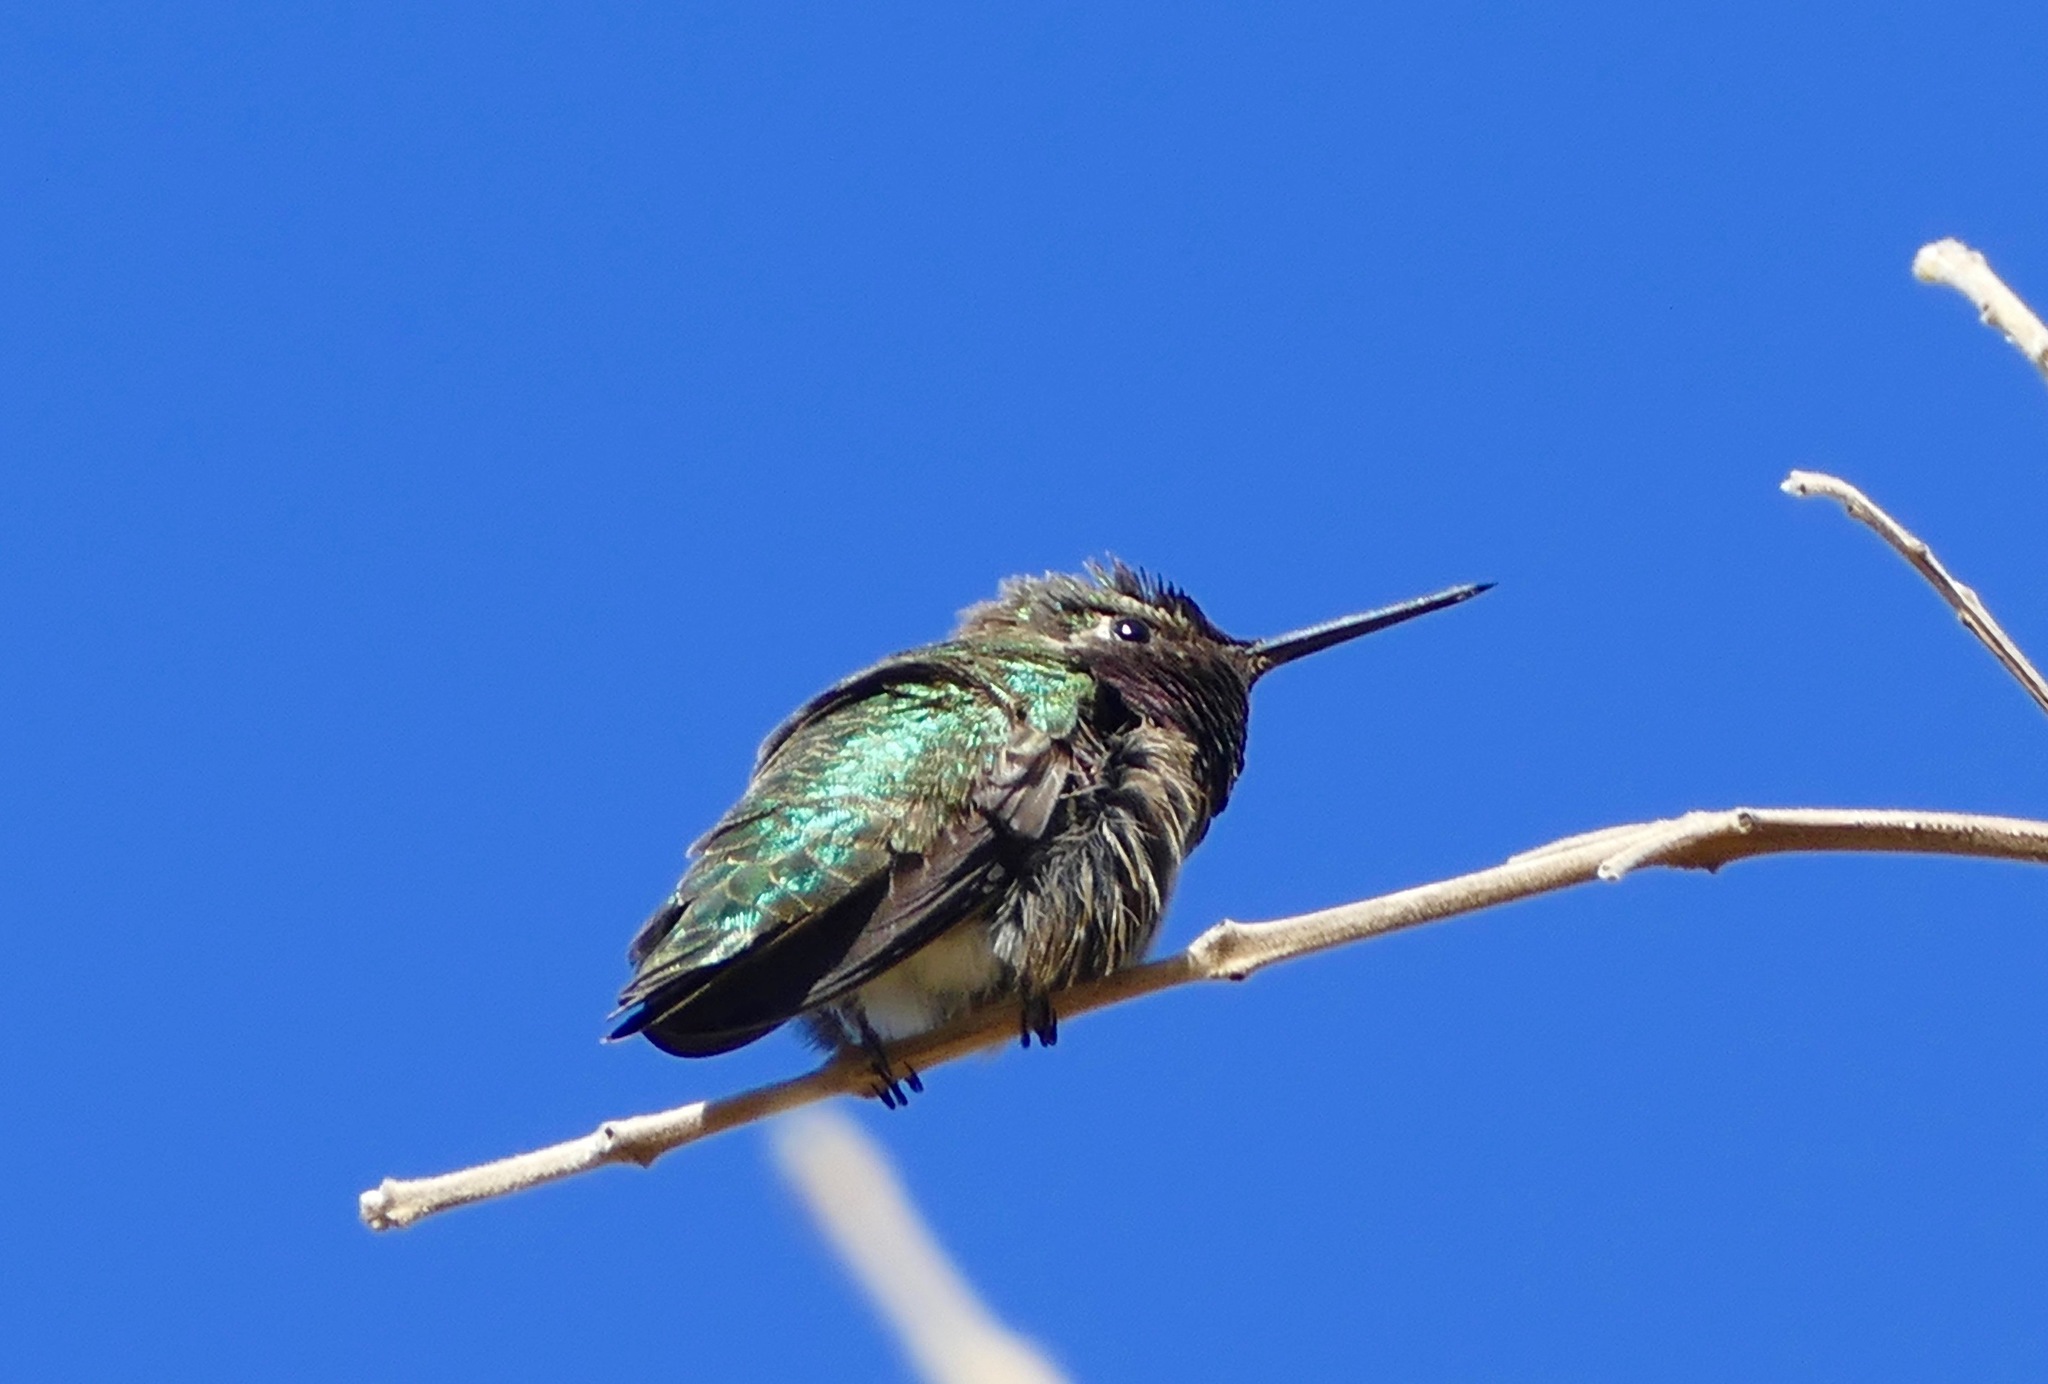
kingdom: Animalia
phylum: Chordata
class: Aves
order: Apodiformes
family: Trochilidae
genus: Calypte
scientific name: Calypte anna
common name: Anna's hummingbird
